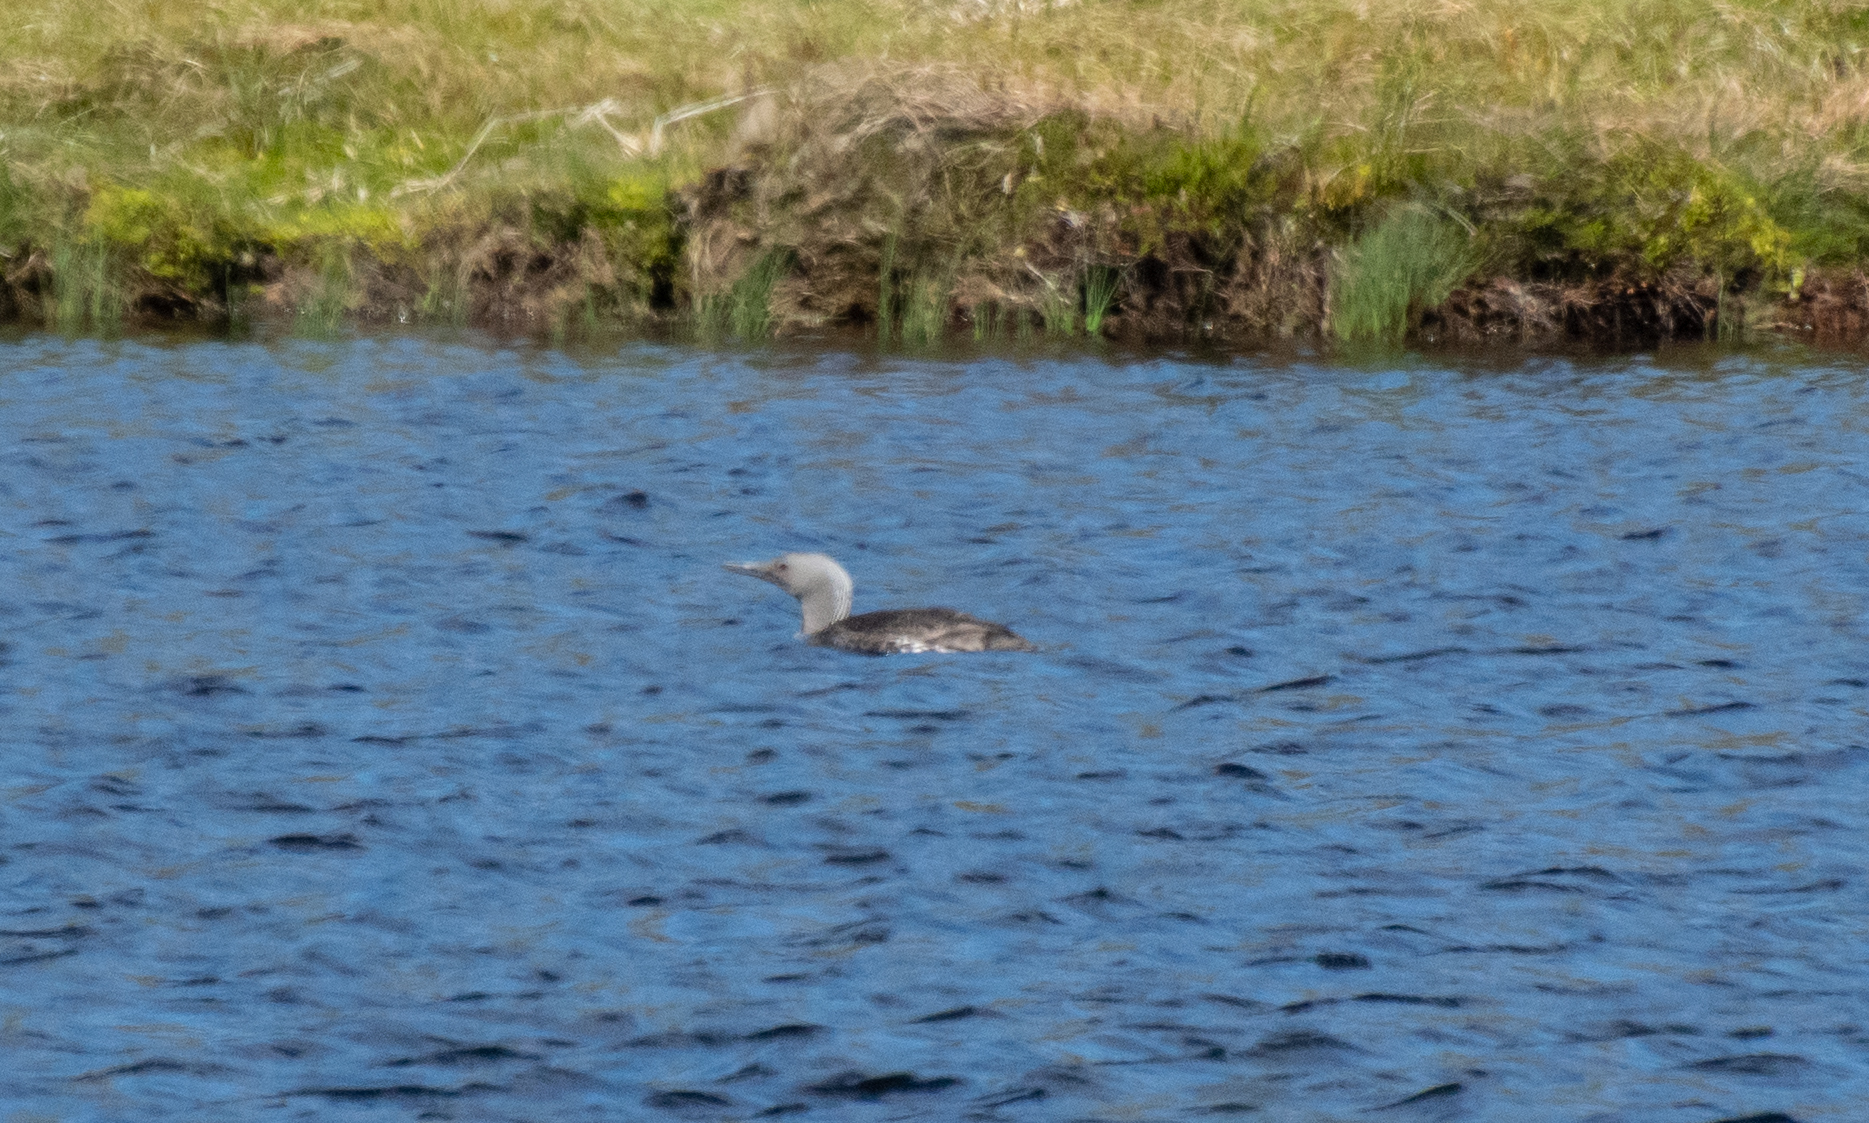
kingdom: Animalia
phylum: Chordata
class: Aves
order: Gaviiformes
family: Gaviidae
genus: Gavia
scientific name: Gavia stellata
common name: Red-throated loon
